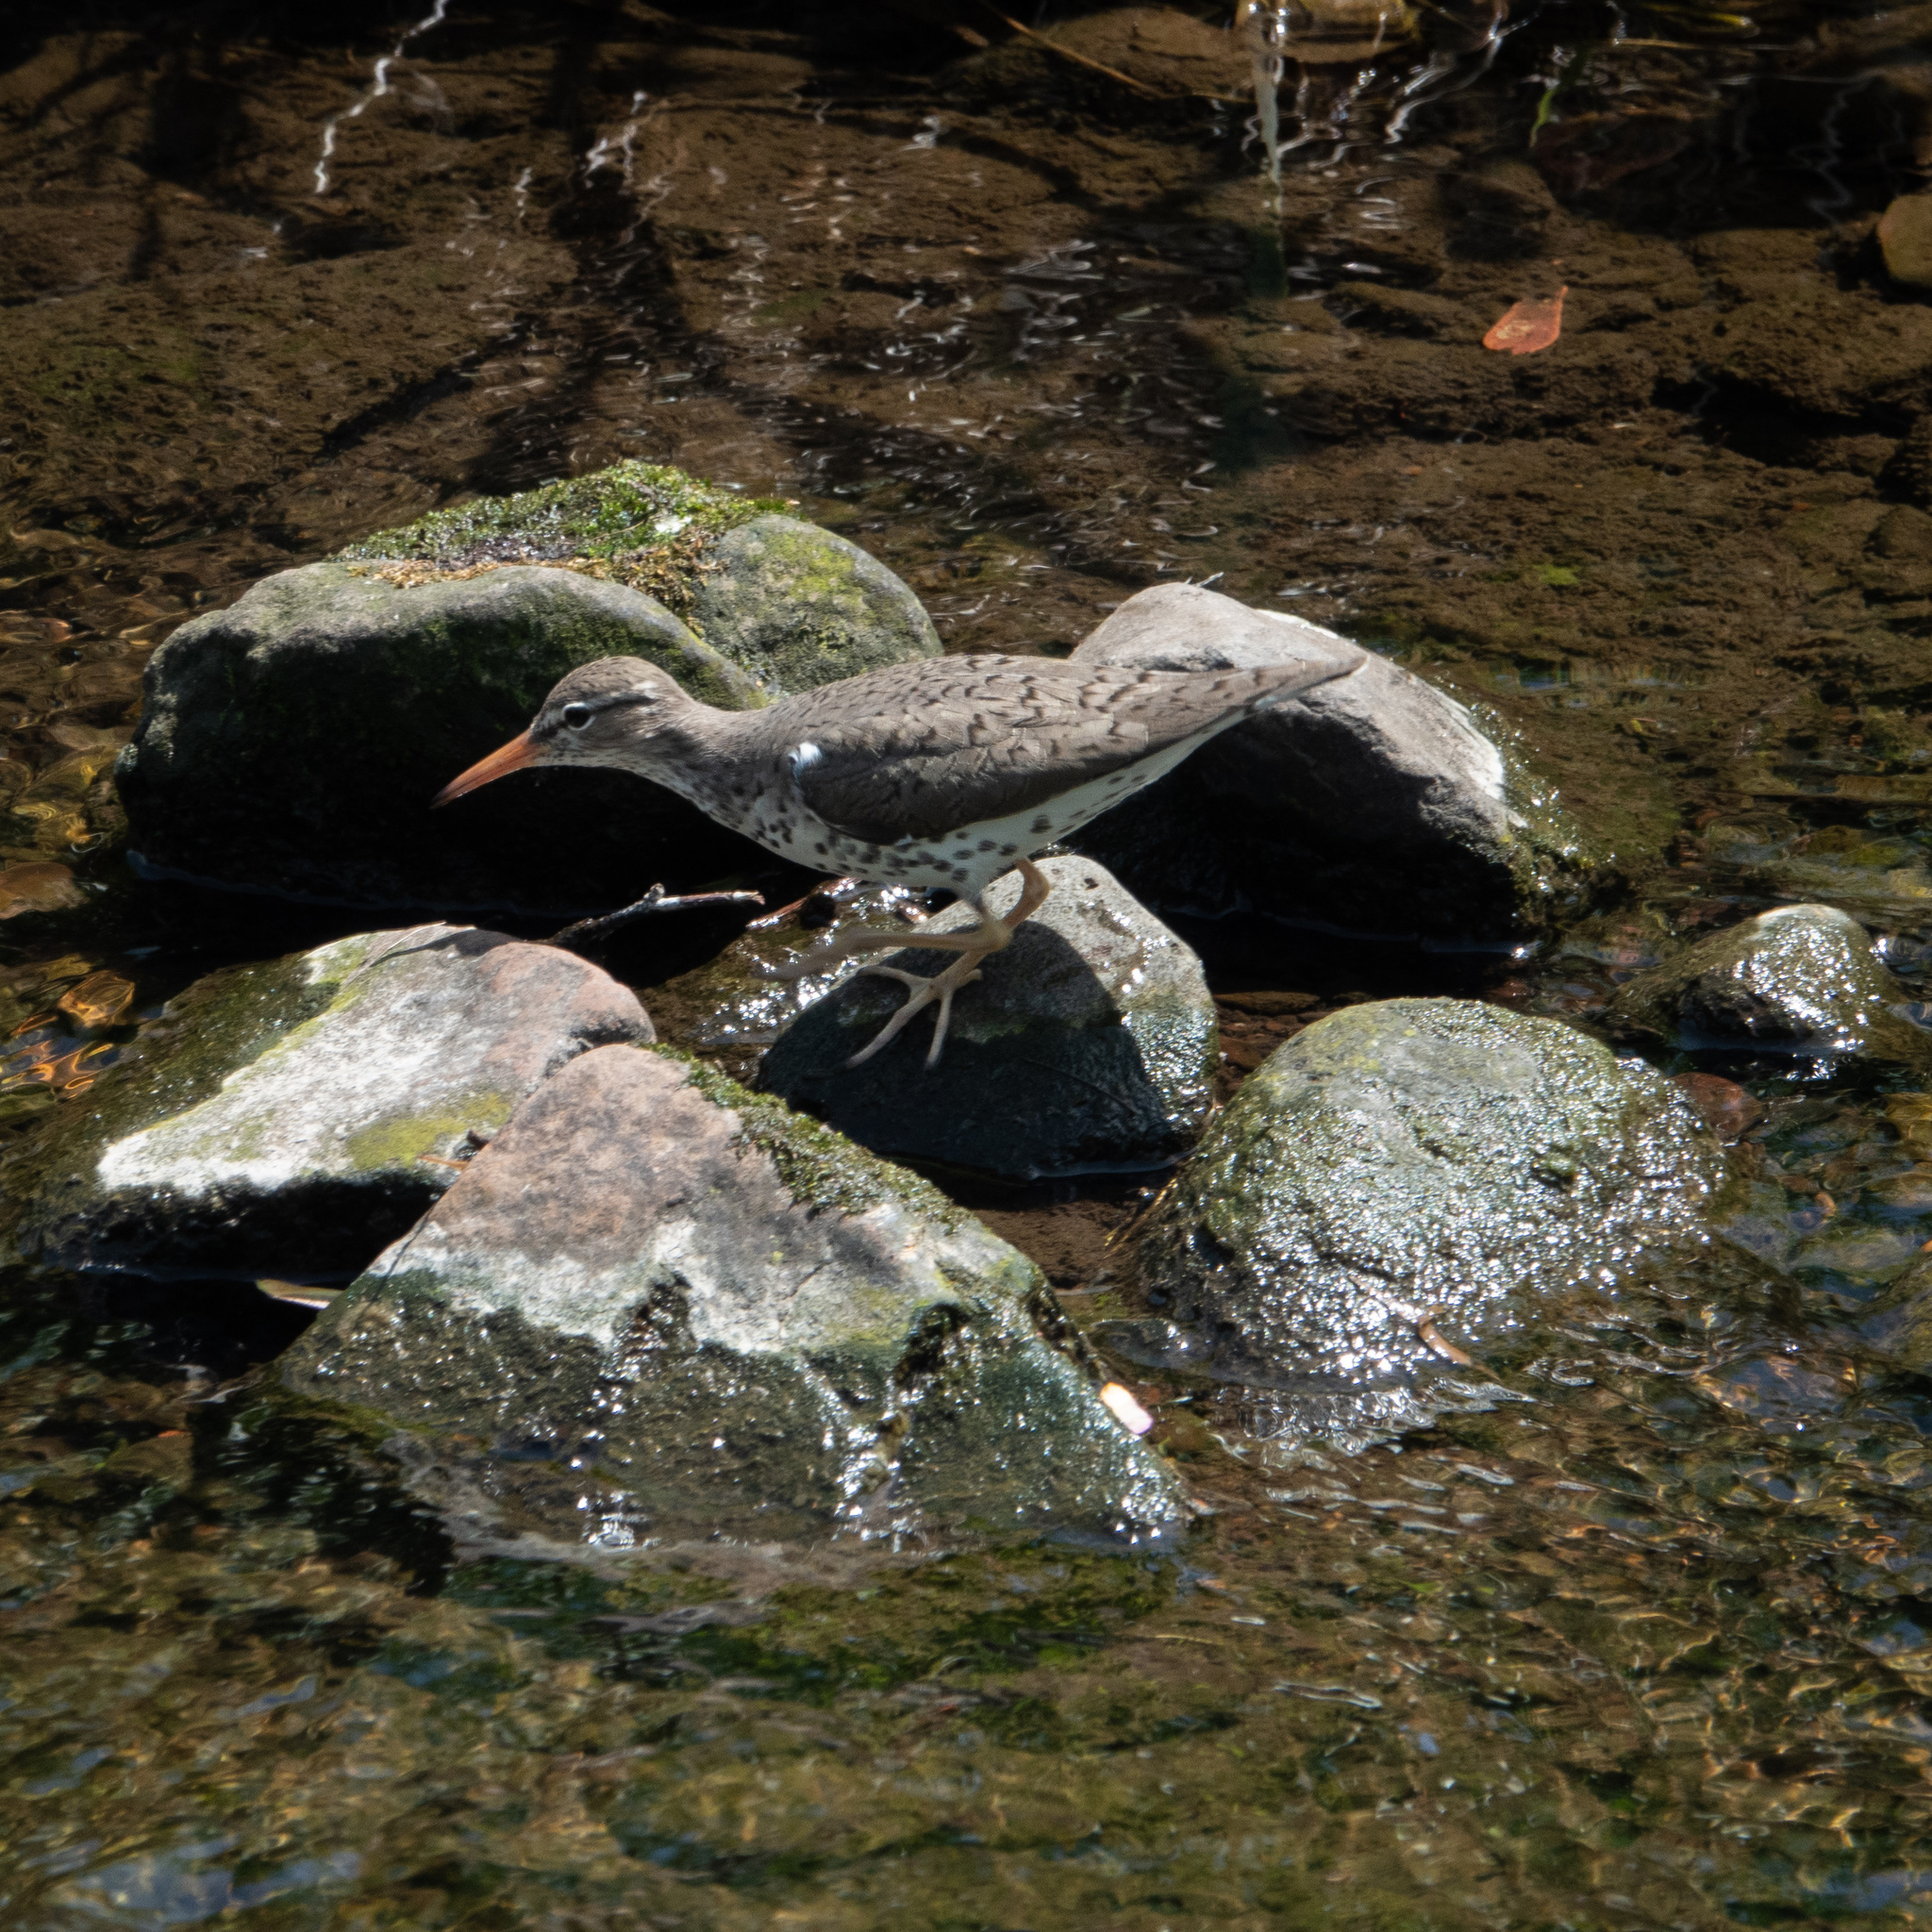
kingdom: Animalia
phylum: Chordata
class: Aves
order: Charadriiformes
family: Scolopacidae
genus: Actitis
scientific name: Actitis macularius
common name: Spotted sandpiper
